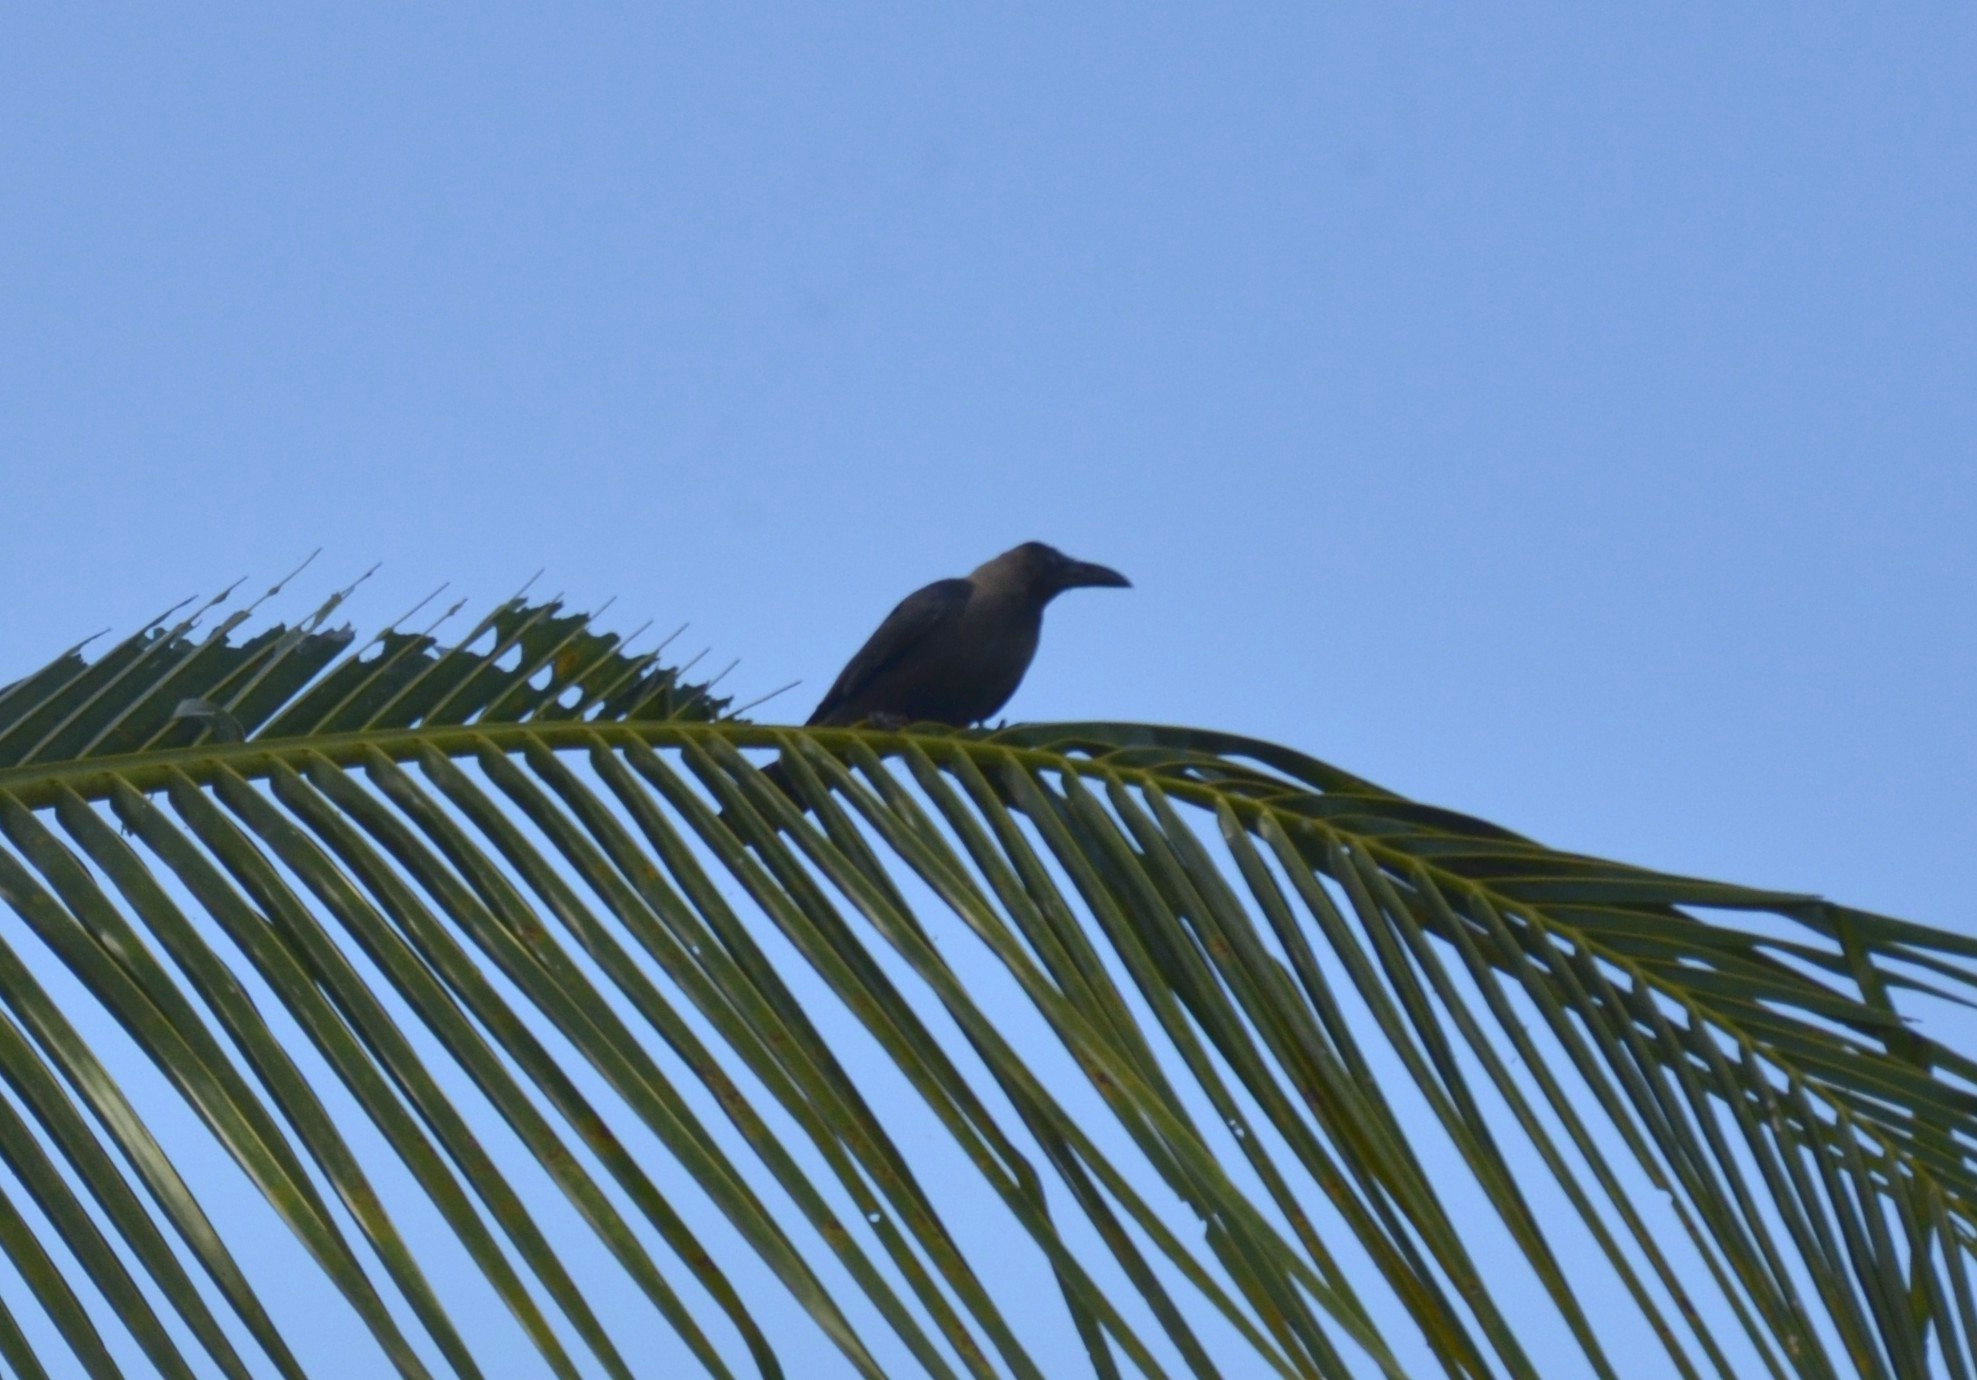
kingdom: Animalia
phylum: Chordata
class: Aves
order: Passeriformes
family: Corvidae
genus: Corvus
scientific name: Corvus splendens
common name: House crow
